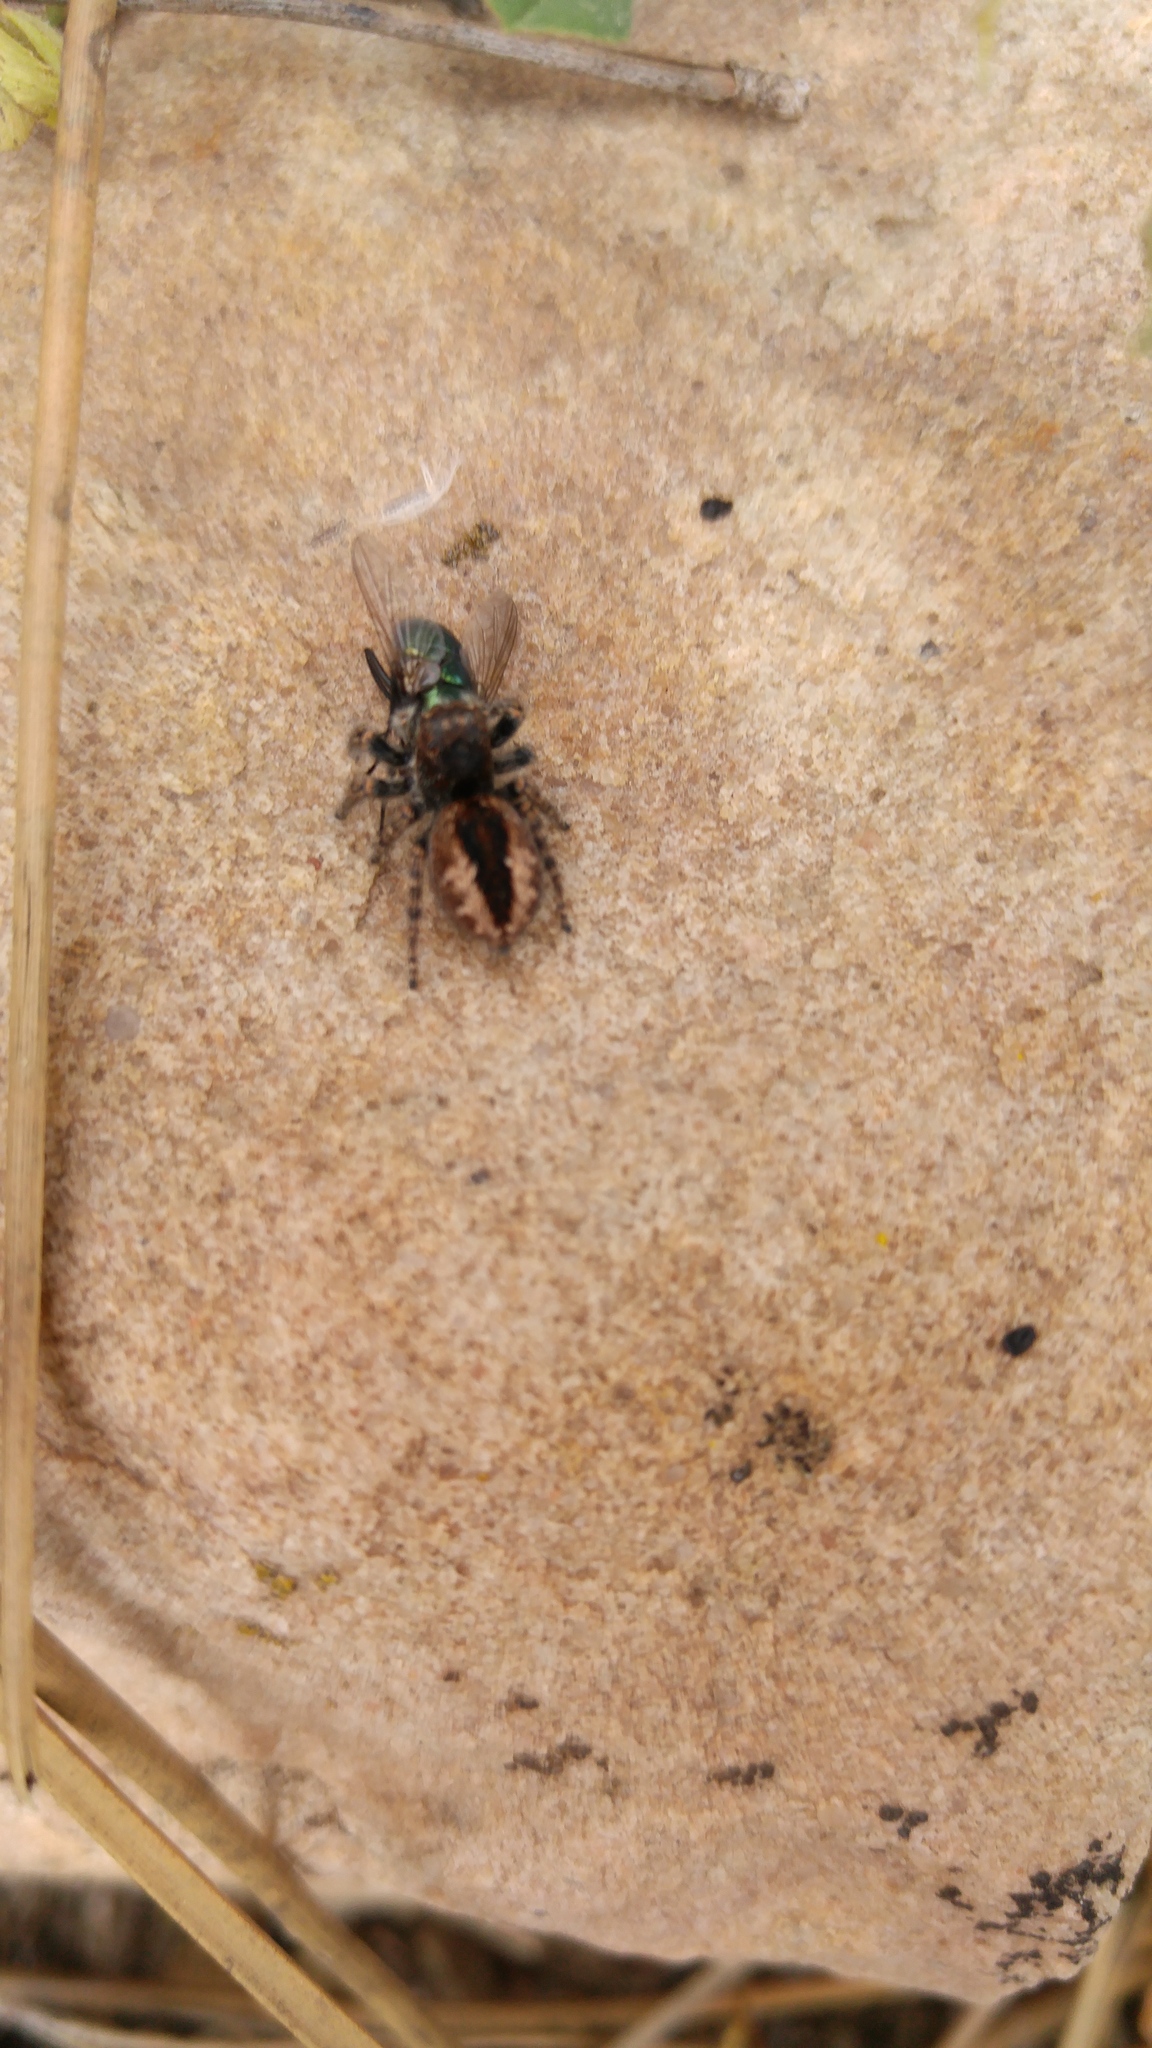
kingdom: Animalia
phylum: Arthropoda
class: Arachnida
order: Araneae
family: Salticidae
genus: Philaeus
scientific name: Philaeus chrysops
